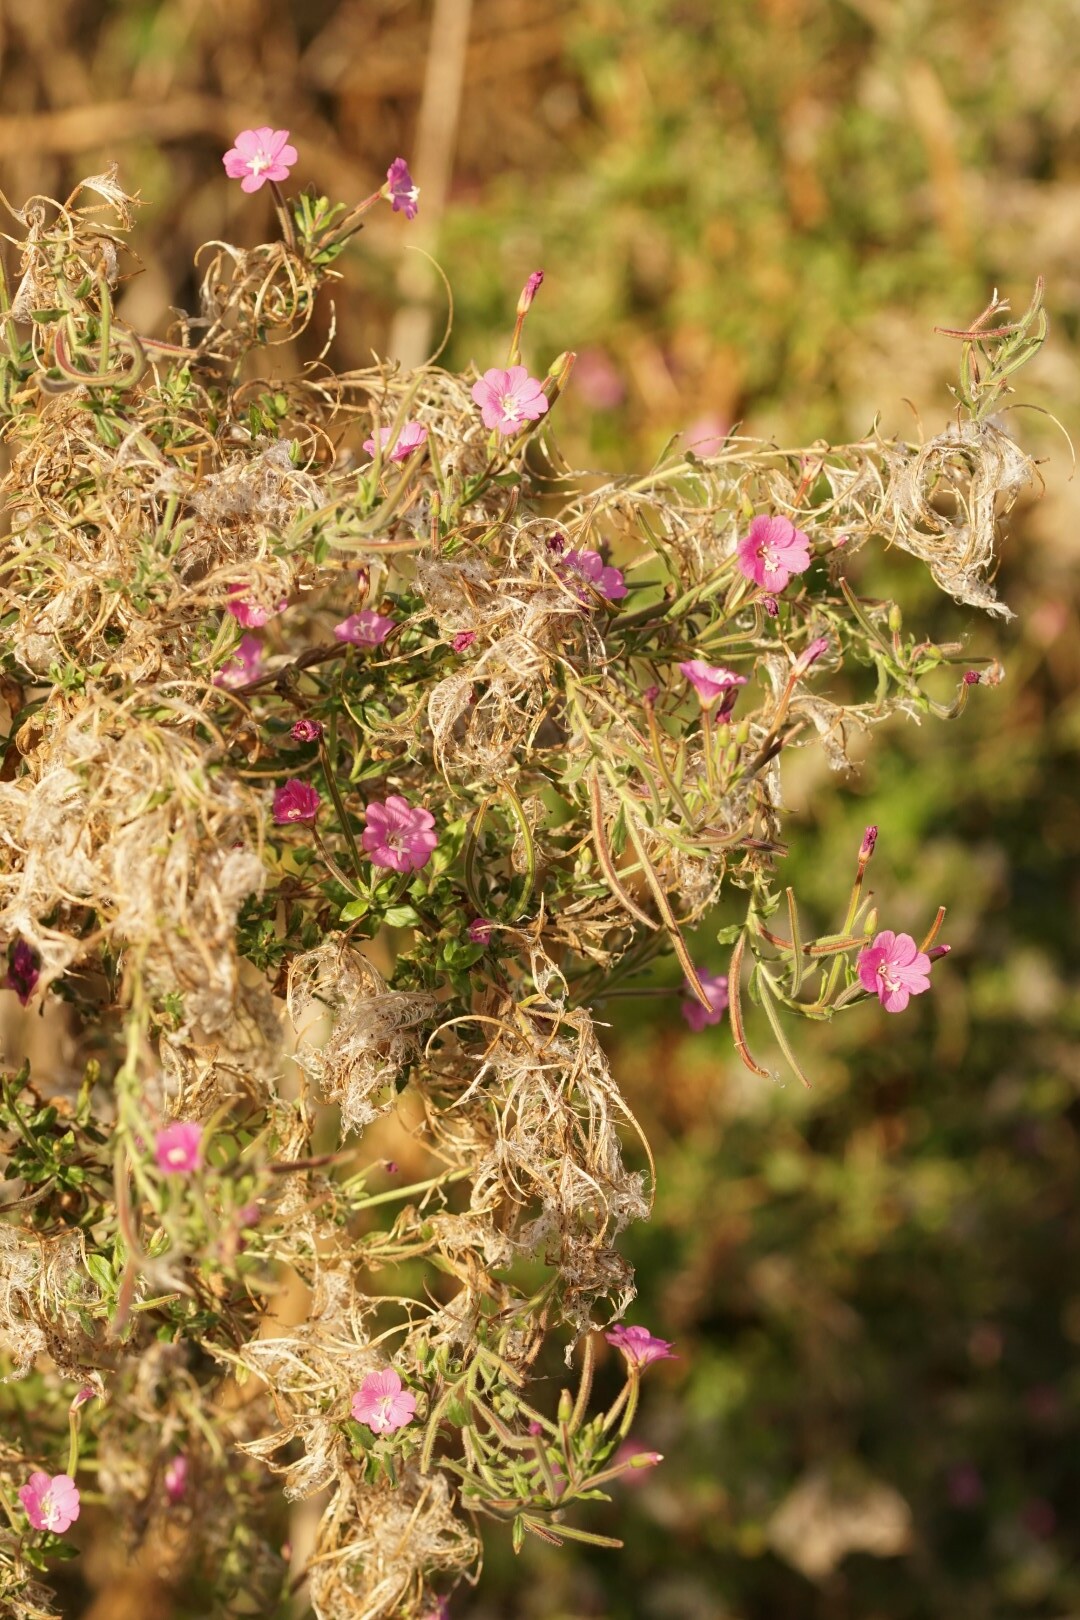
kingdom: Plantae
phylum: Tracheophyta
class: Magnoliopsida
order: Myrtales
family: Onagraceae
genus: Epilobium
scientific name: Epilobium hirsutum
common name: Great willowherb
